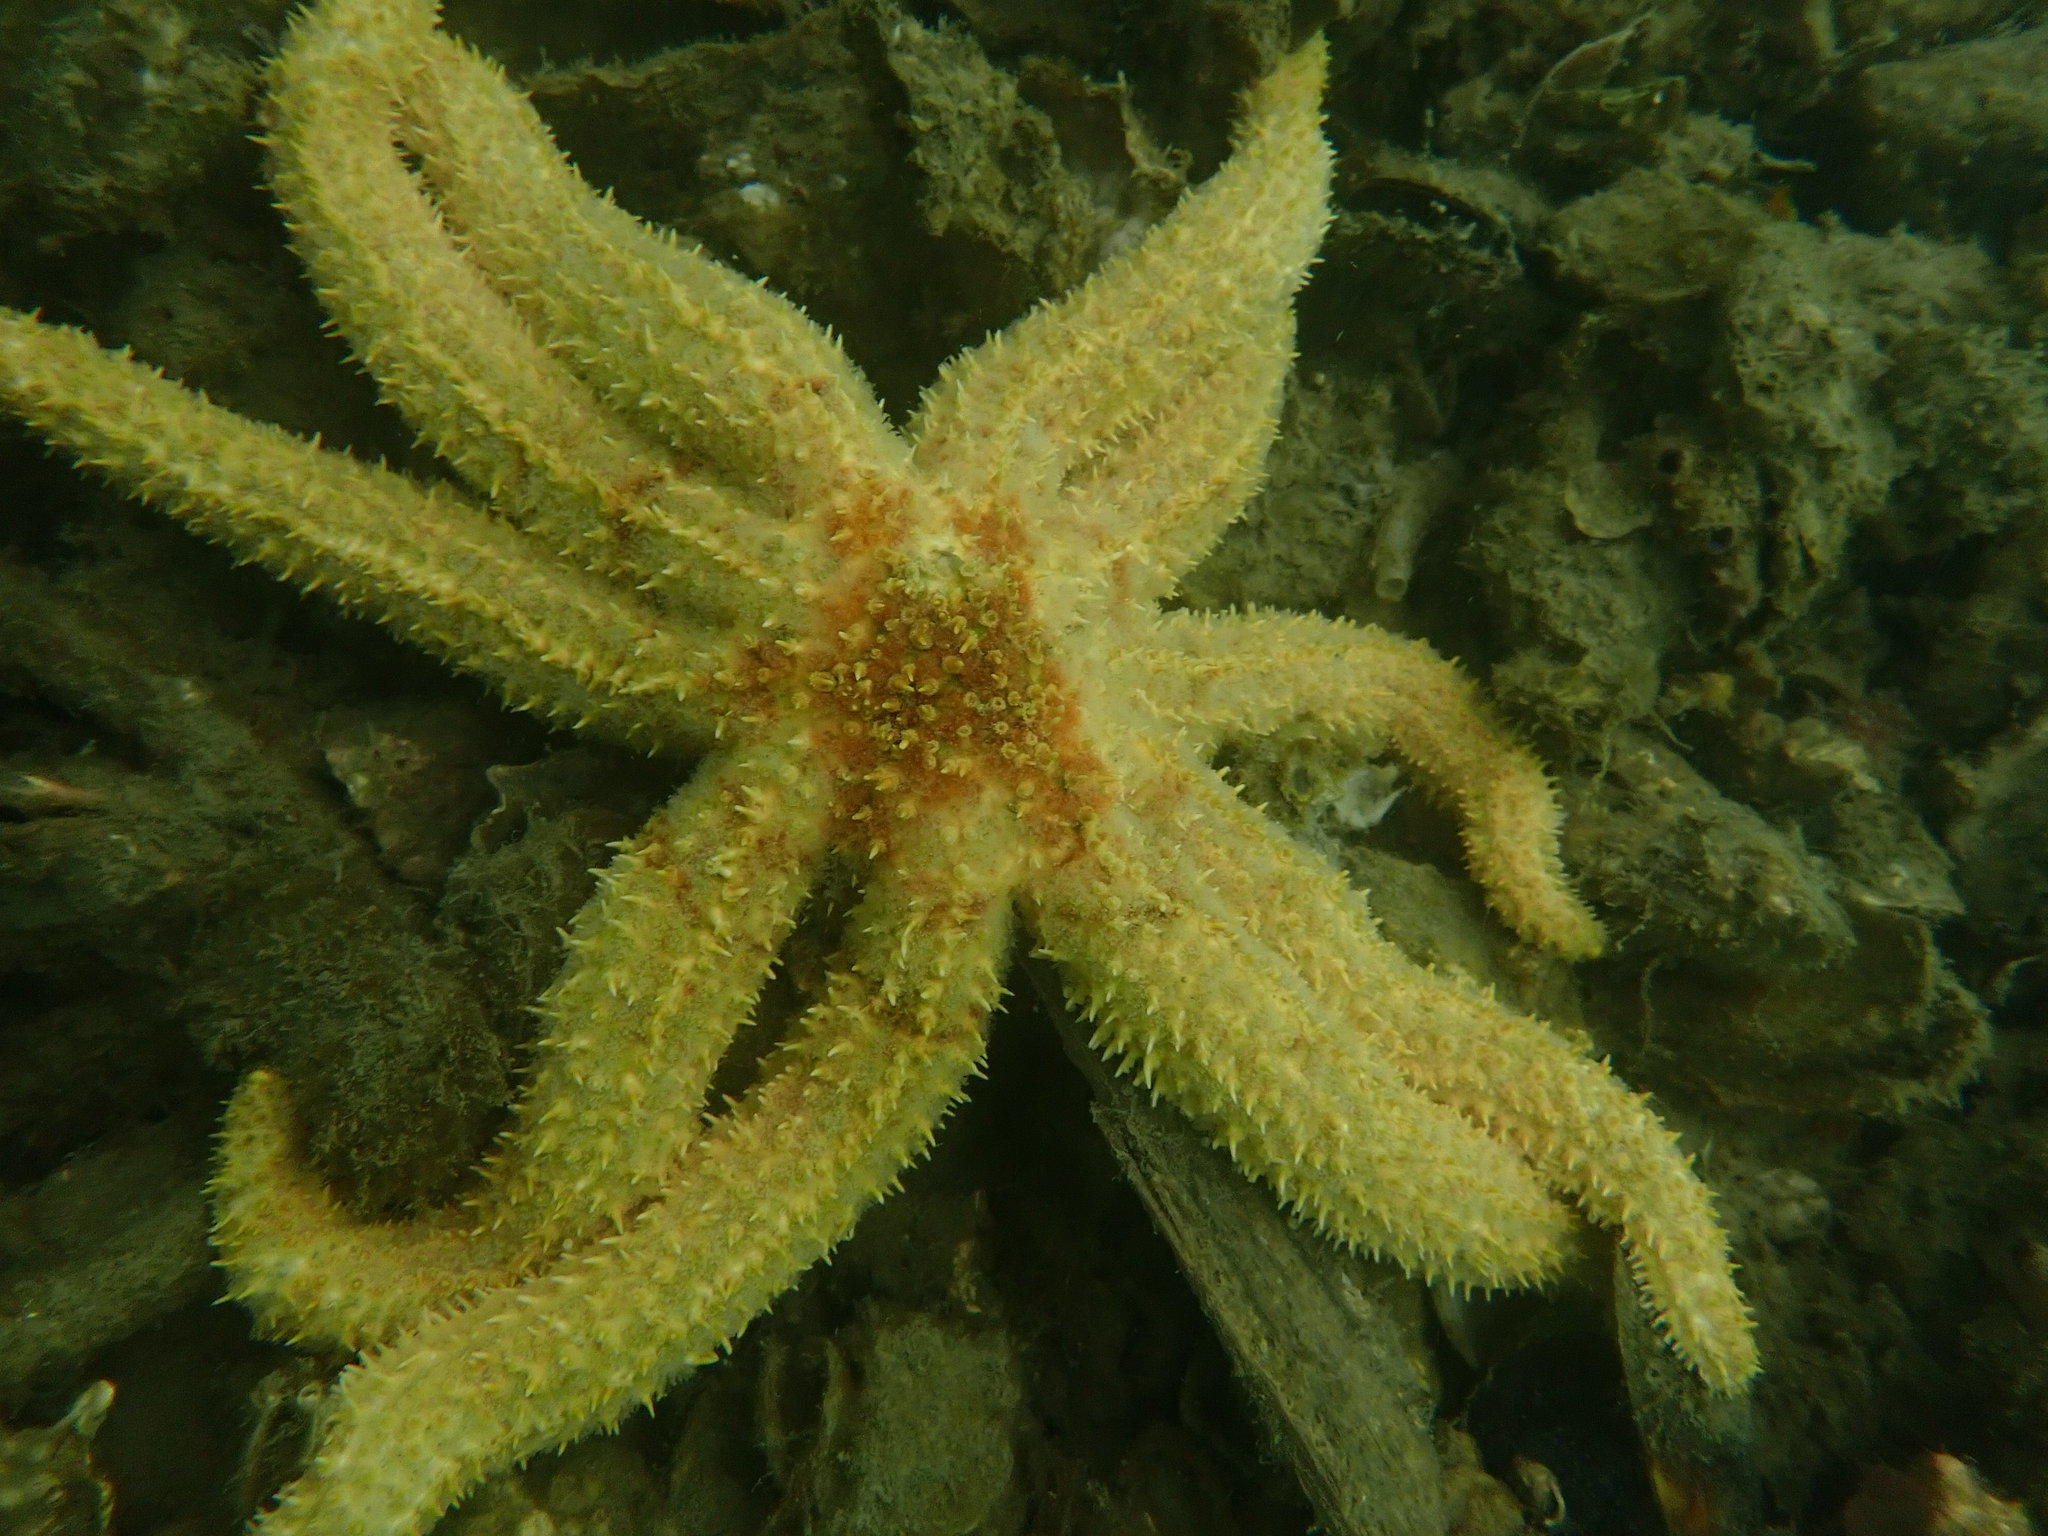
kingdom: Animalia
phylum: Echinodermata
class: Asteroidea
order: Forcipulatida
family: Asteriidae
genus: Coscinasterias
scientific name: Coscinasterias muricata
